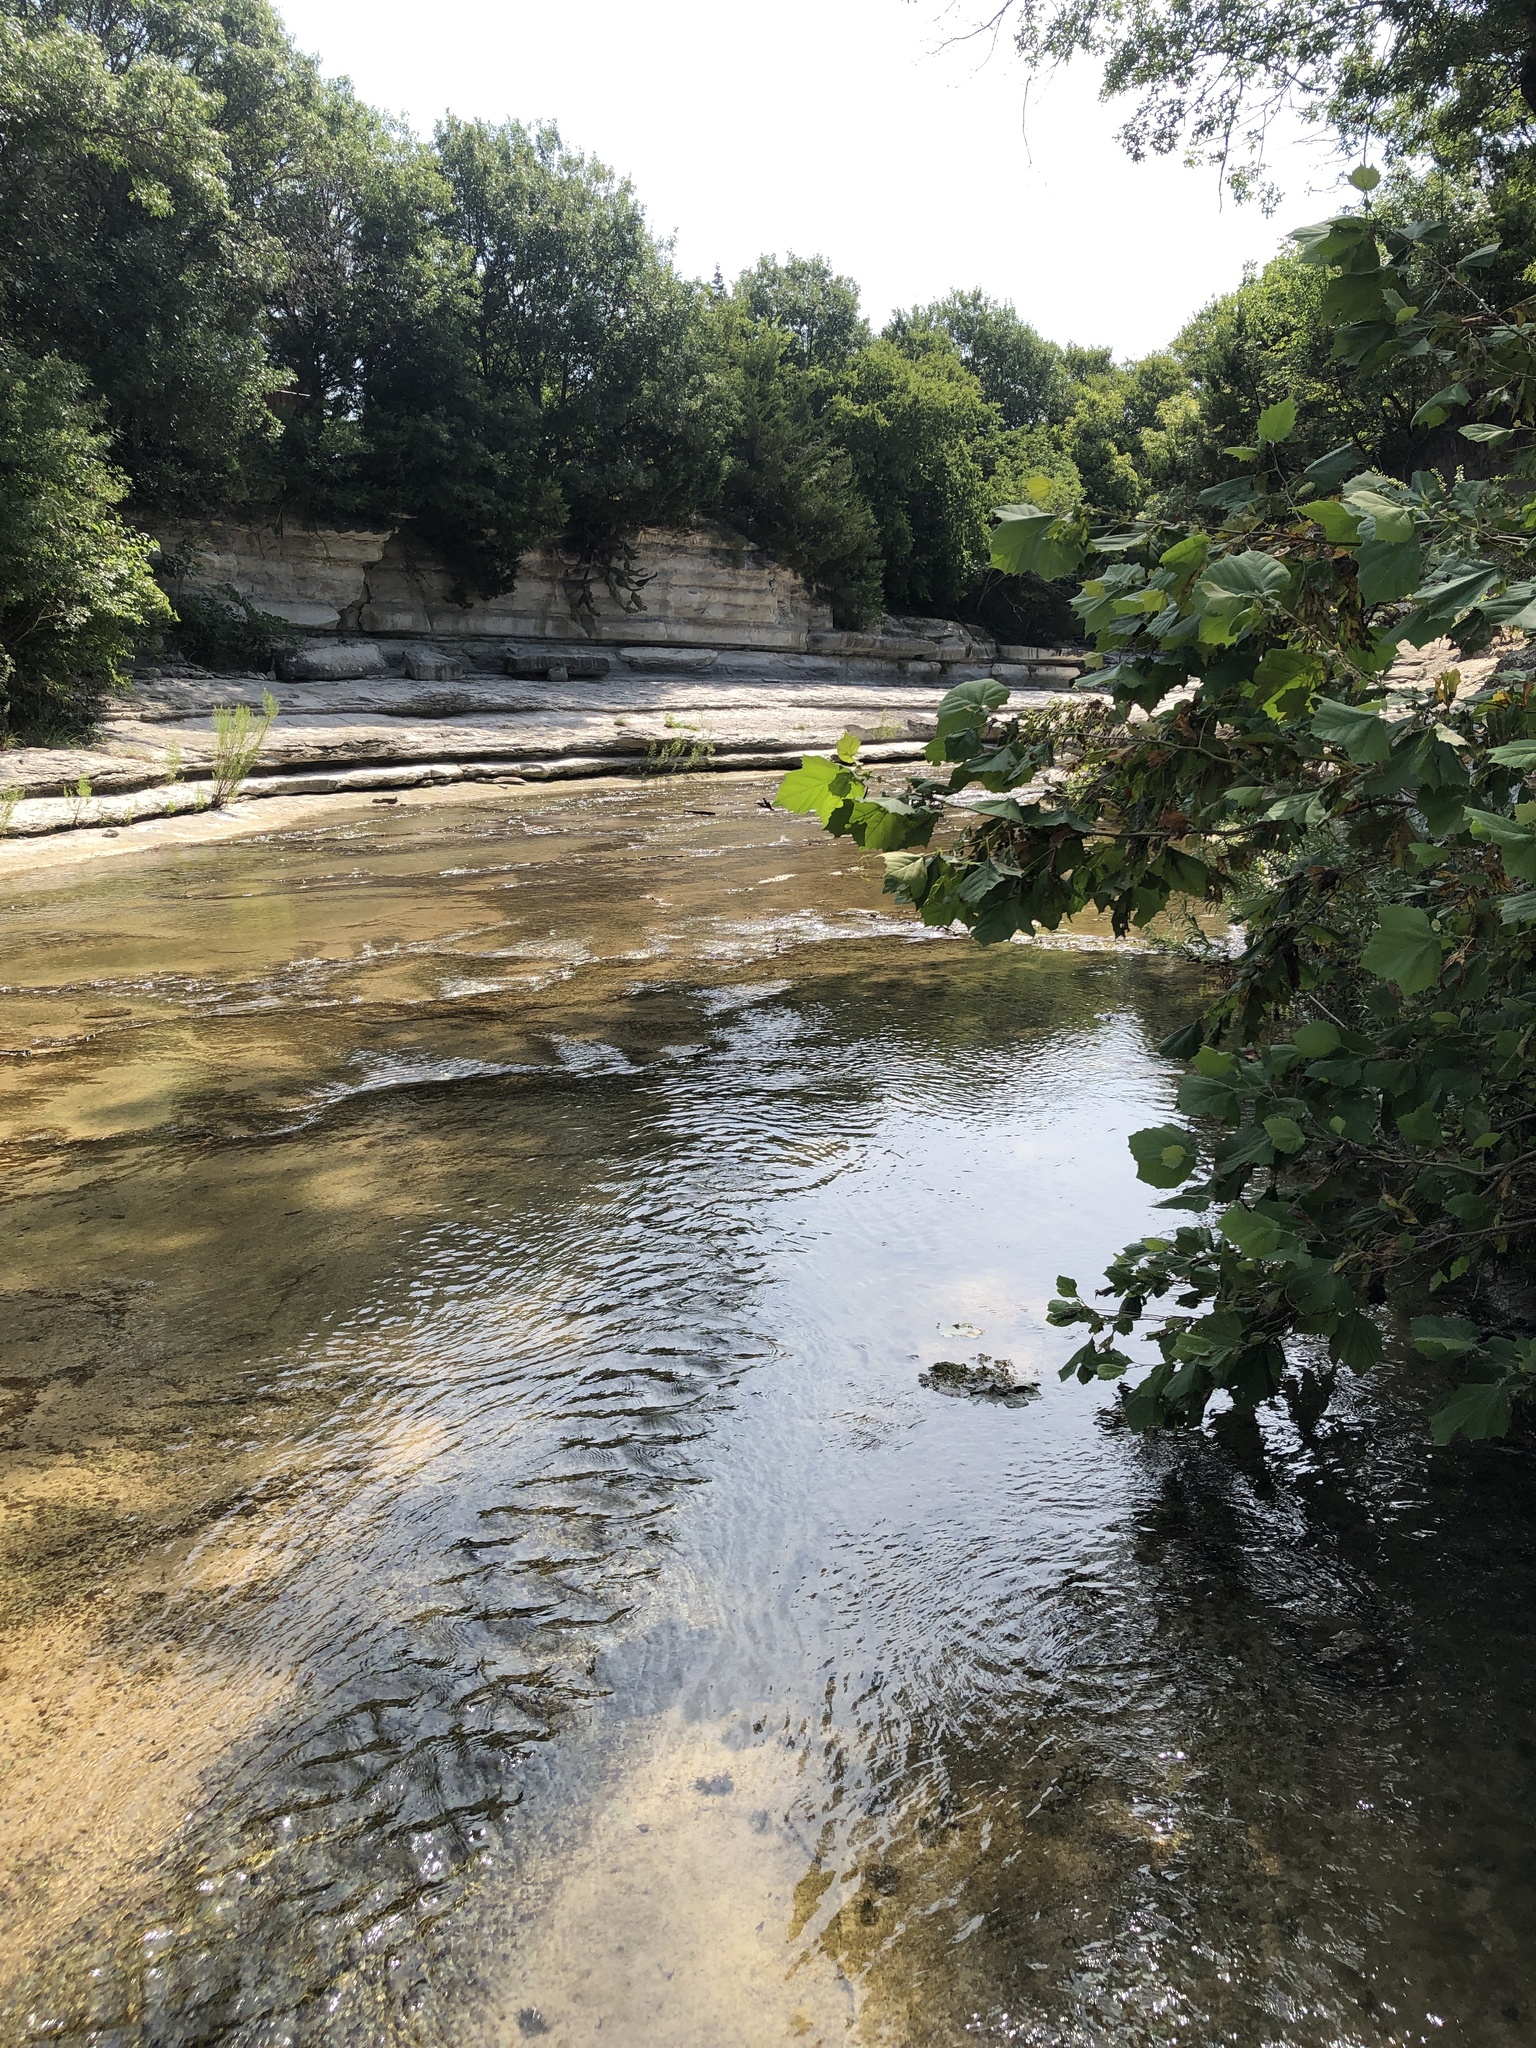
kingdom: Animalia
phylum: Chordata
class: Amphibia
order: Anura
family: Hylidae
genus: Acris
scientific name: Acris blanchardi
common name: Blanchard's cricket frog
